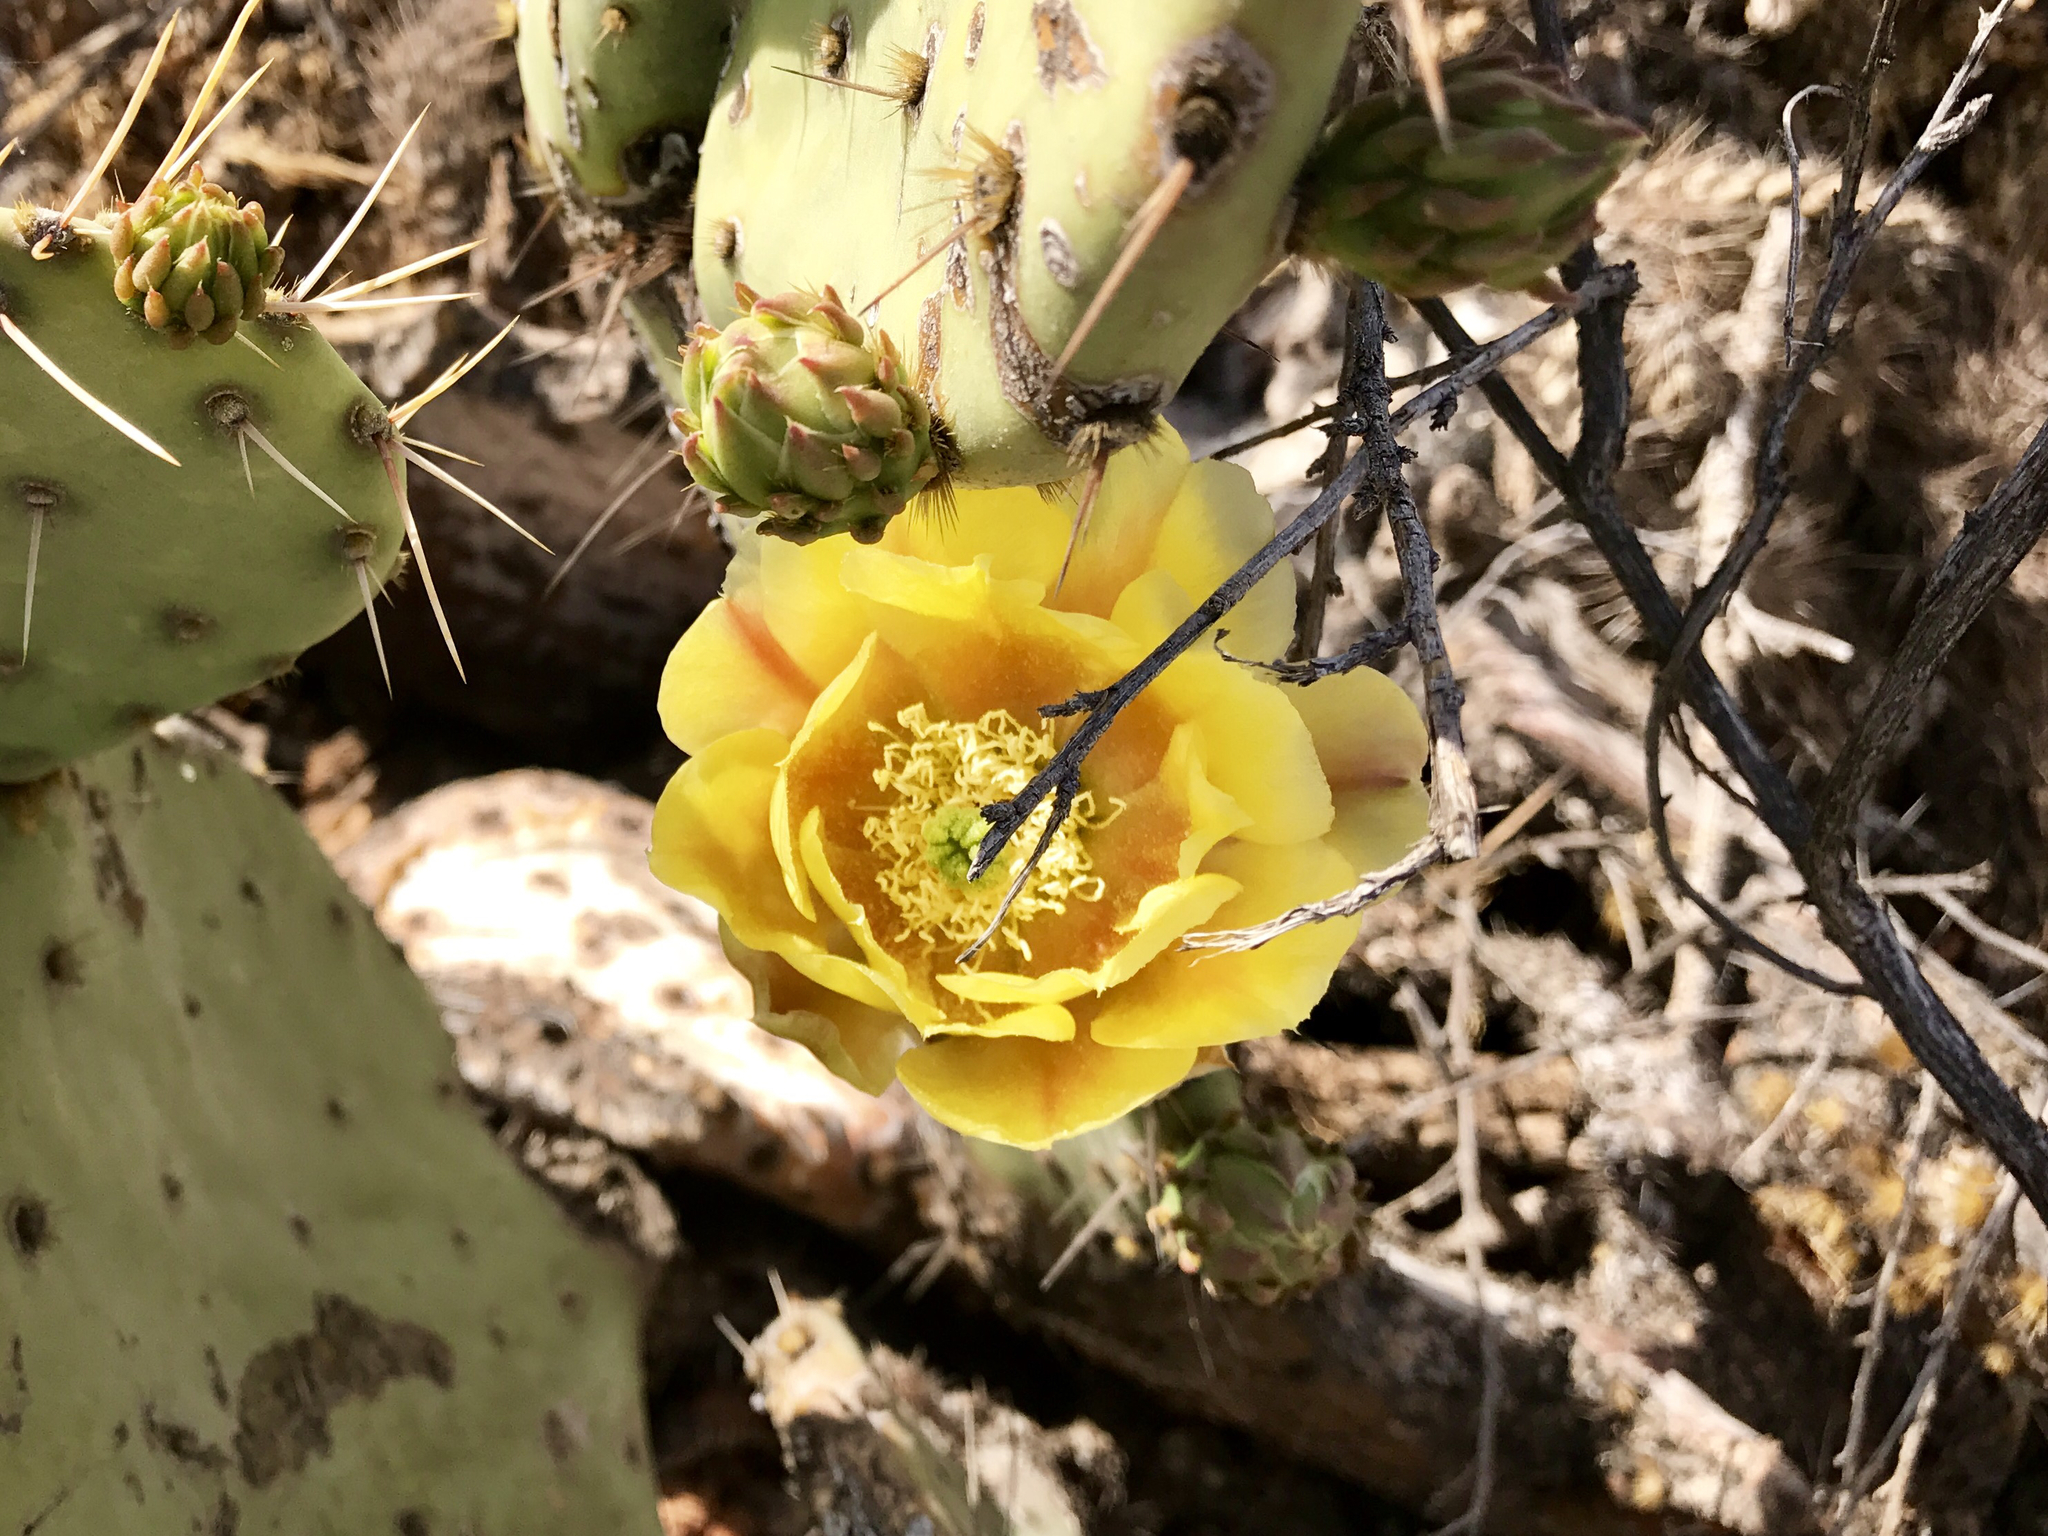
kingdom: Plantae
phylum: Tracheophyta
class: Magnoliopsida
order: Caryophyllales
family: Cactaceae
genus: Opuntia
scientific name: Opuntia engelmannii
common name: Cactus-apple
